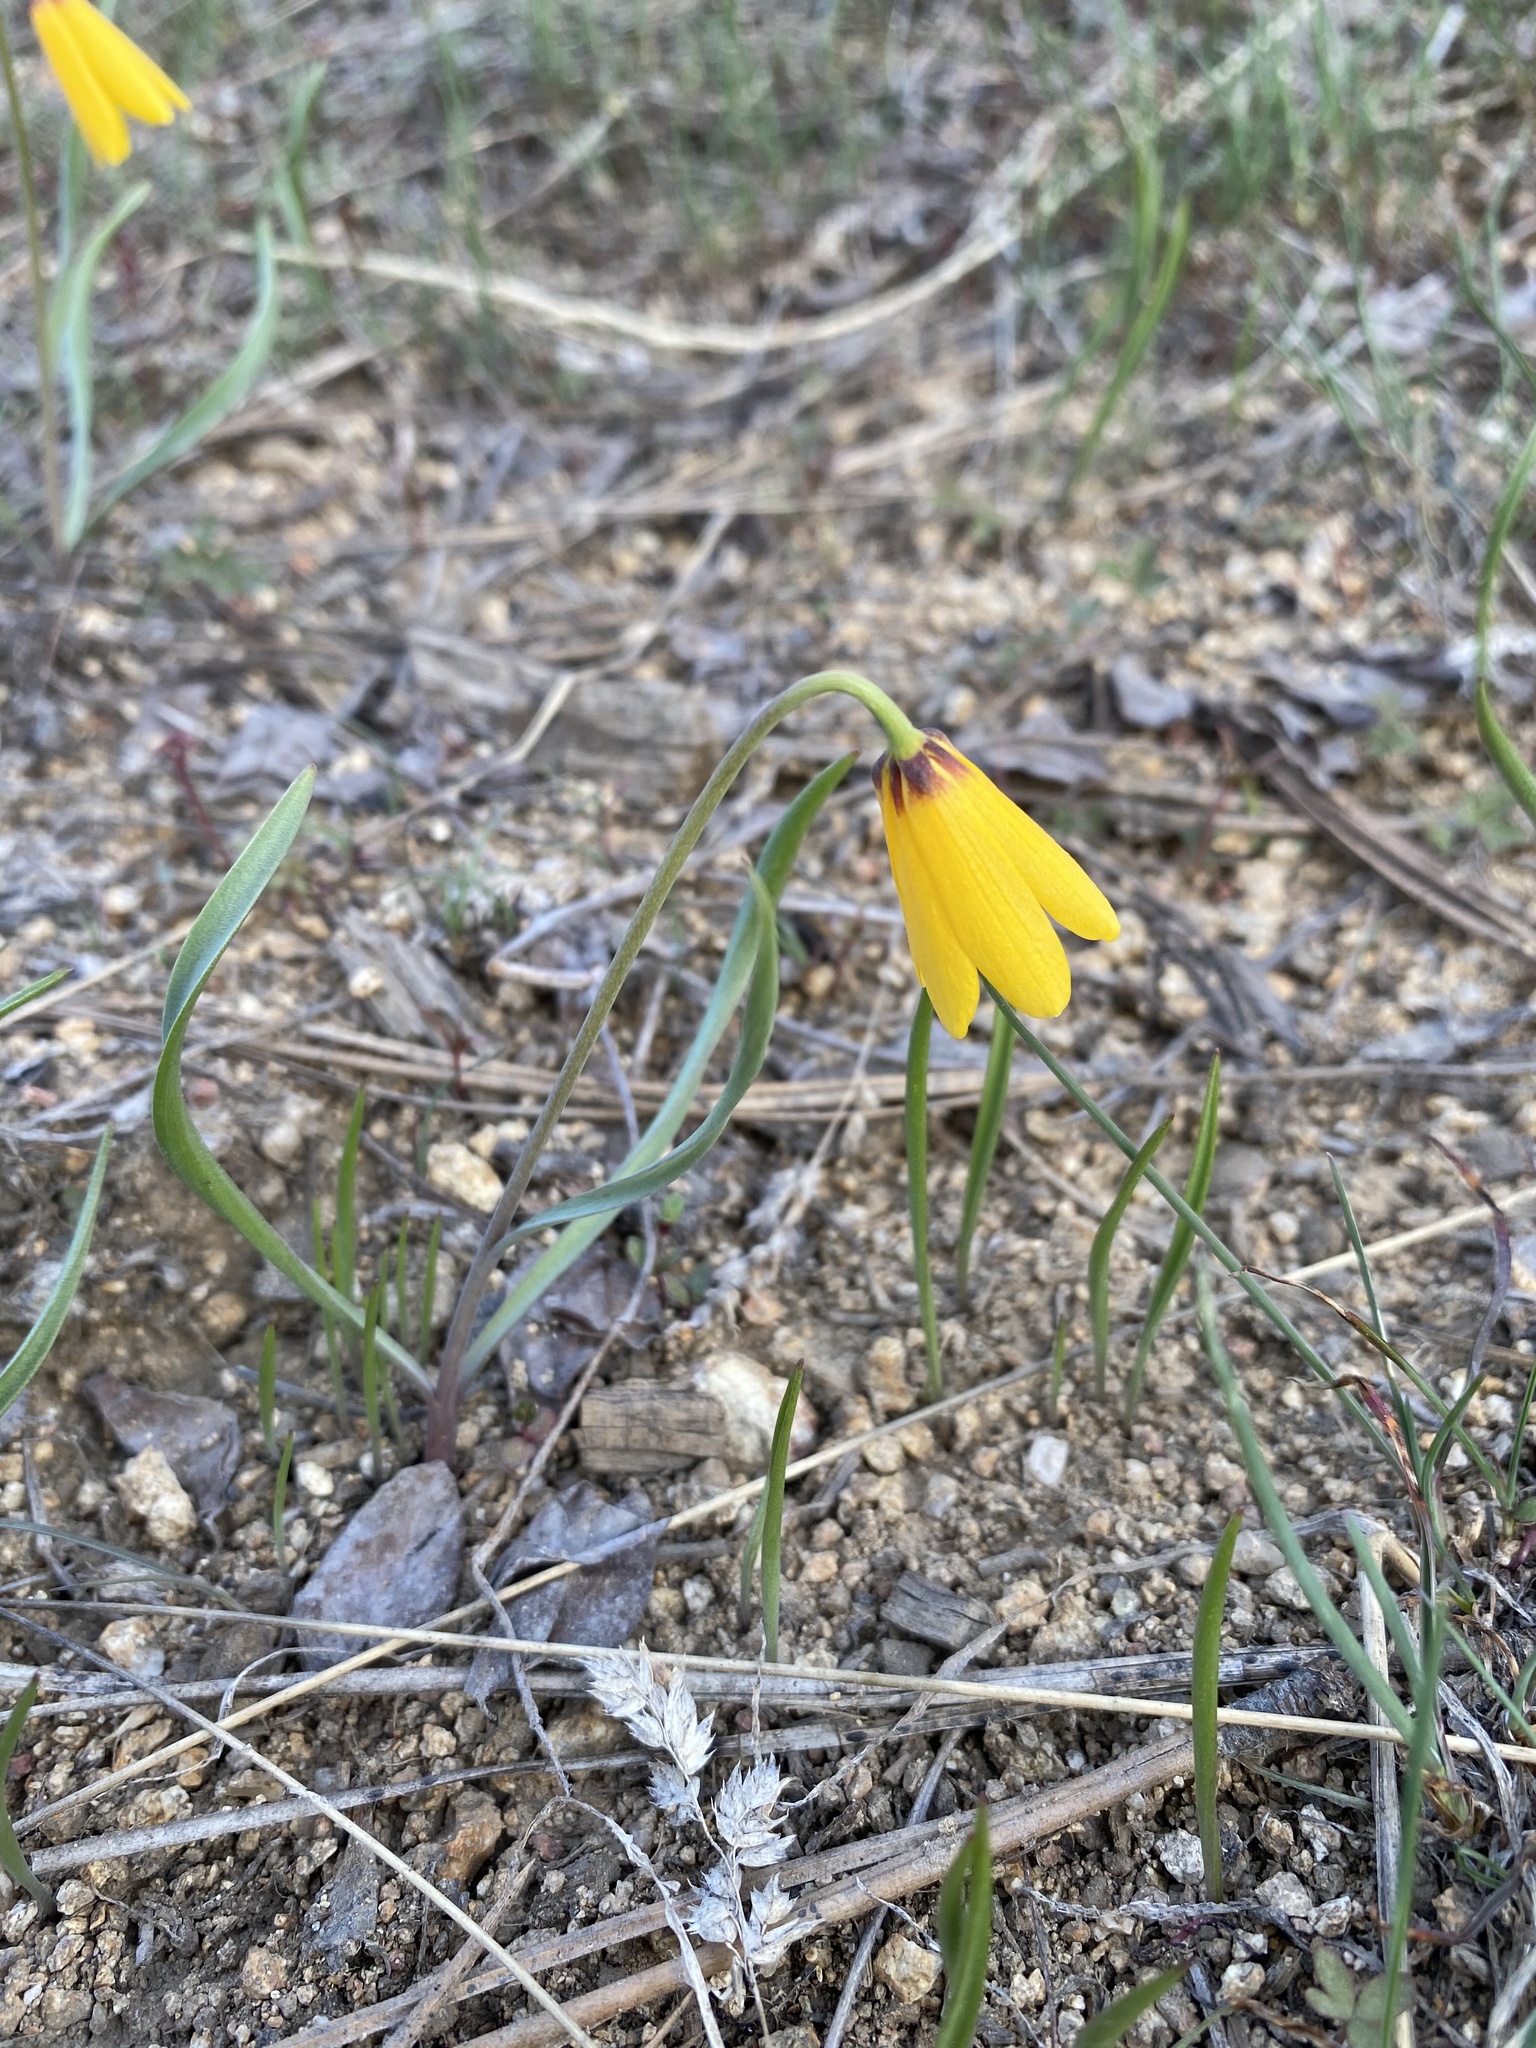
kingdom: Plantae
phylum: Tracheophyta
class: Liliopsida
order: Liliales
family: Liliaceae
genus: Fritillaria
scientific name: Fritillaria pudica
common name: Yellow fritillary
